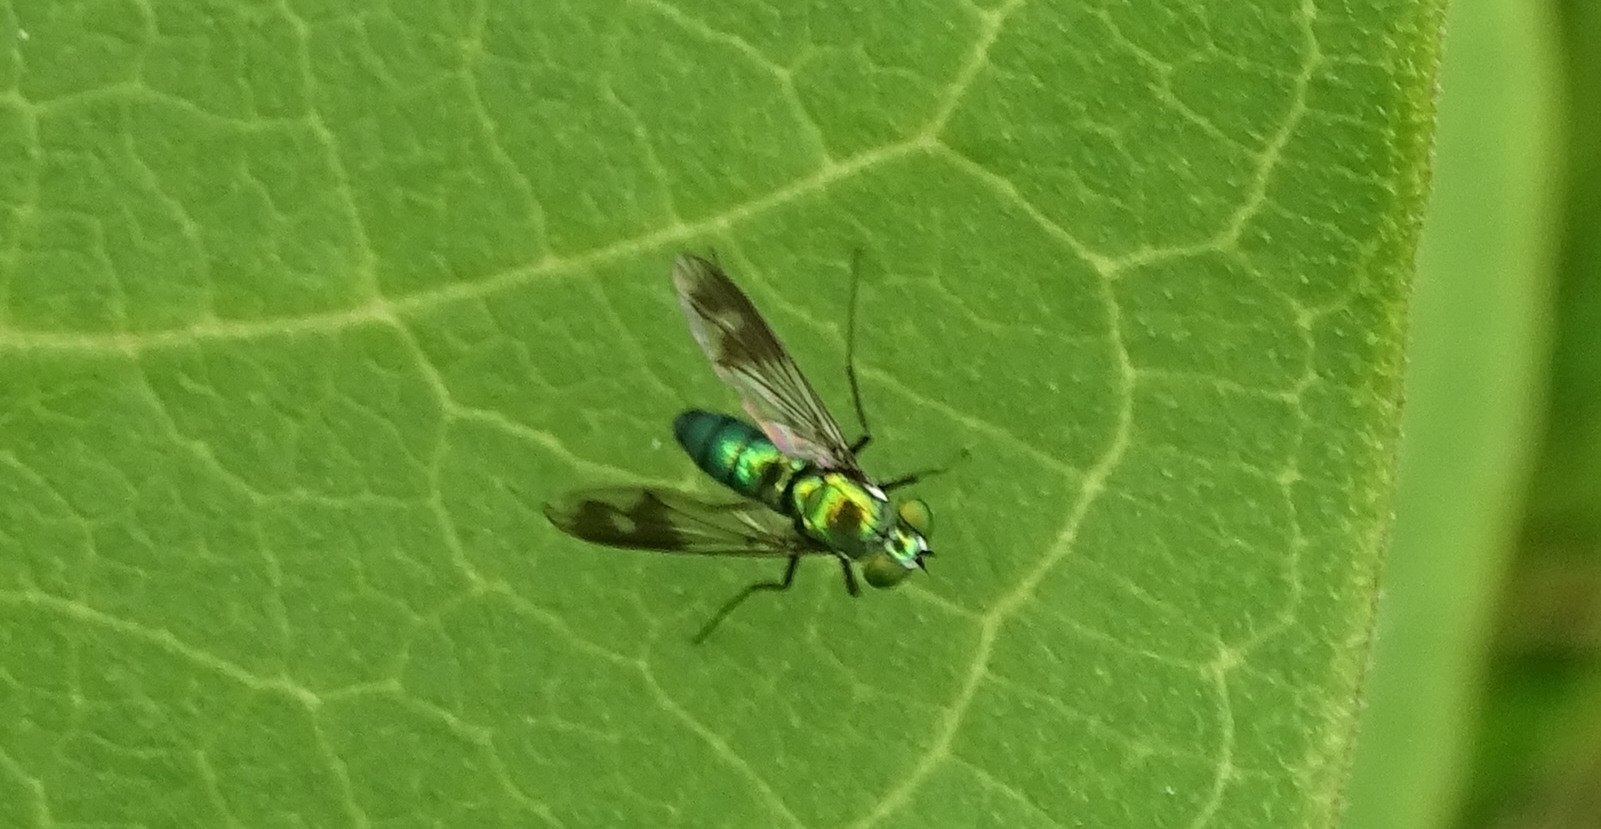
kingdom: Animalia
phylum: Arthropoda
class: Insecta
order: Diptera
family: Dolichopodidae
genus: Condylostylus
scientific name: Condylostylus patibulatus
